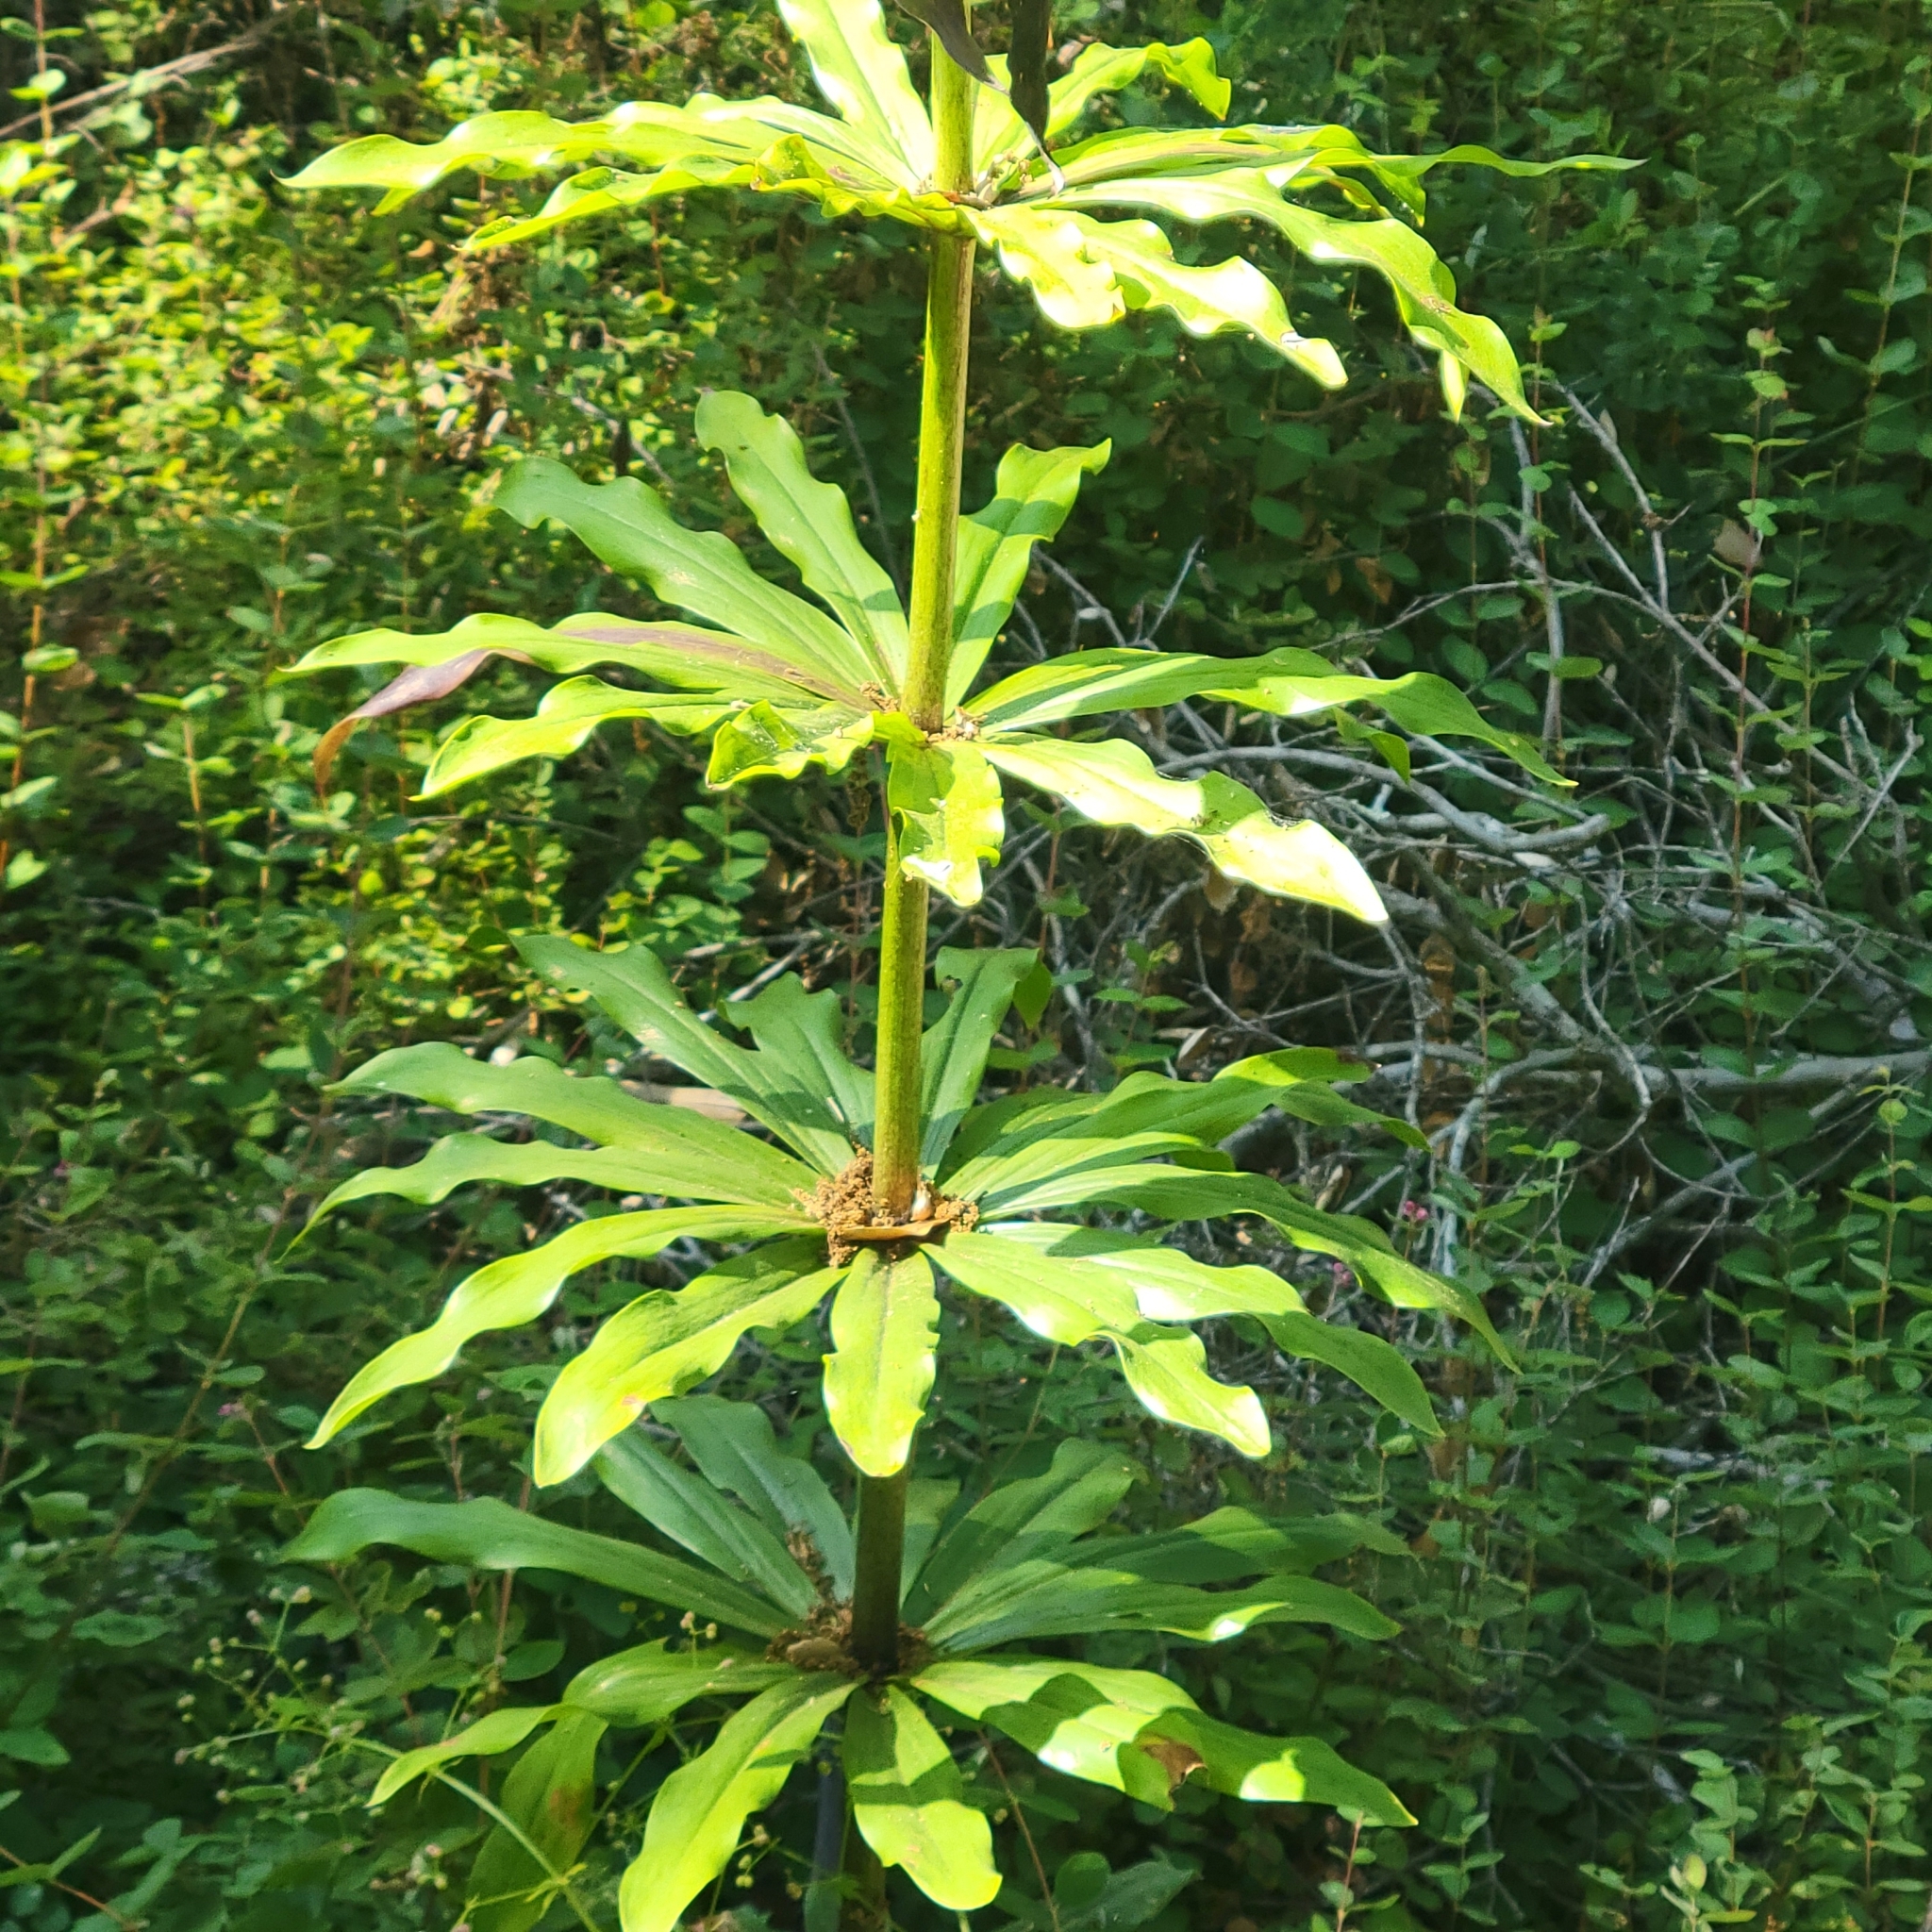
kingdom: Plantae
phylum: Tracheophyta
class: Liliopsida
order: Liliales
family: Liliaceae
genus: Lilium
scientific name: Lilium humboldtii
